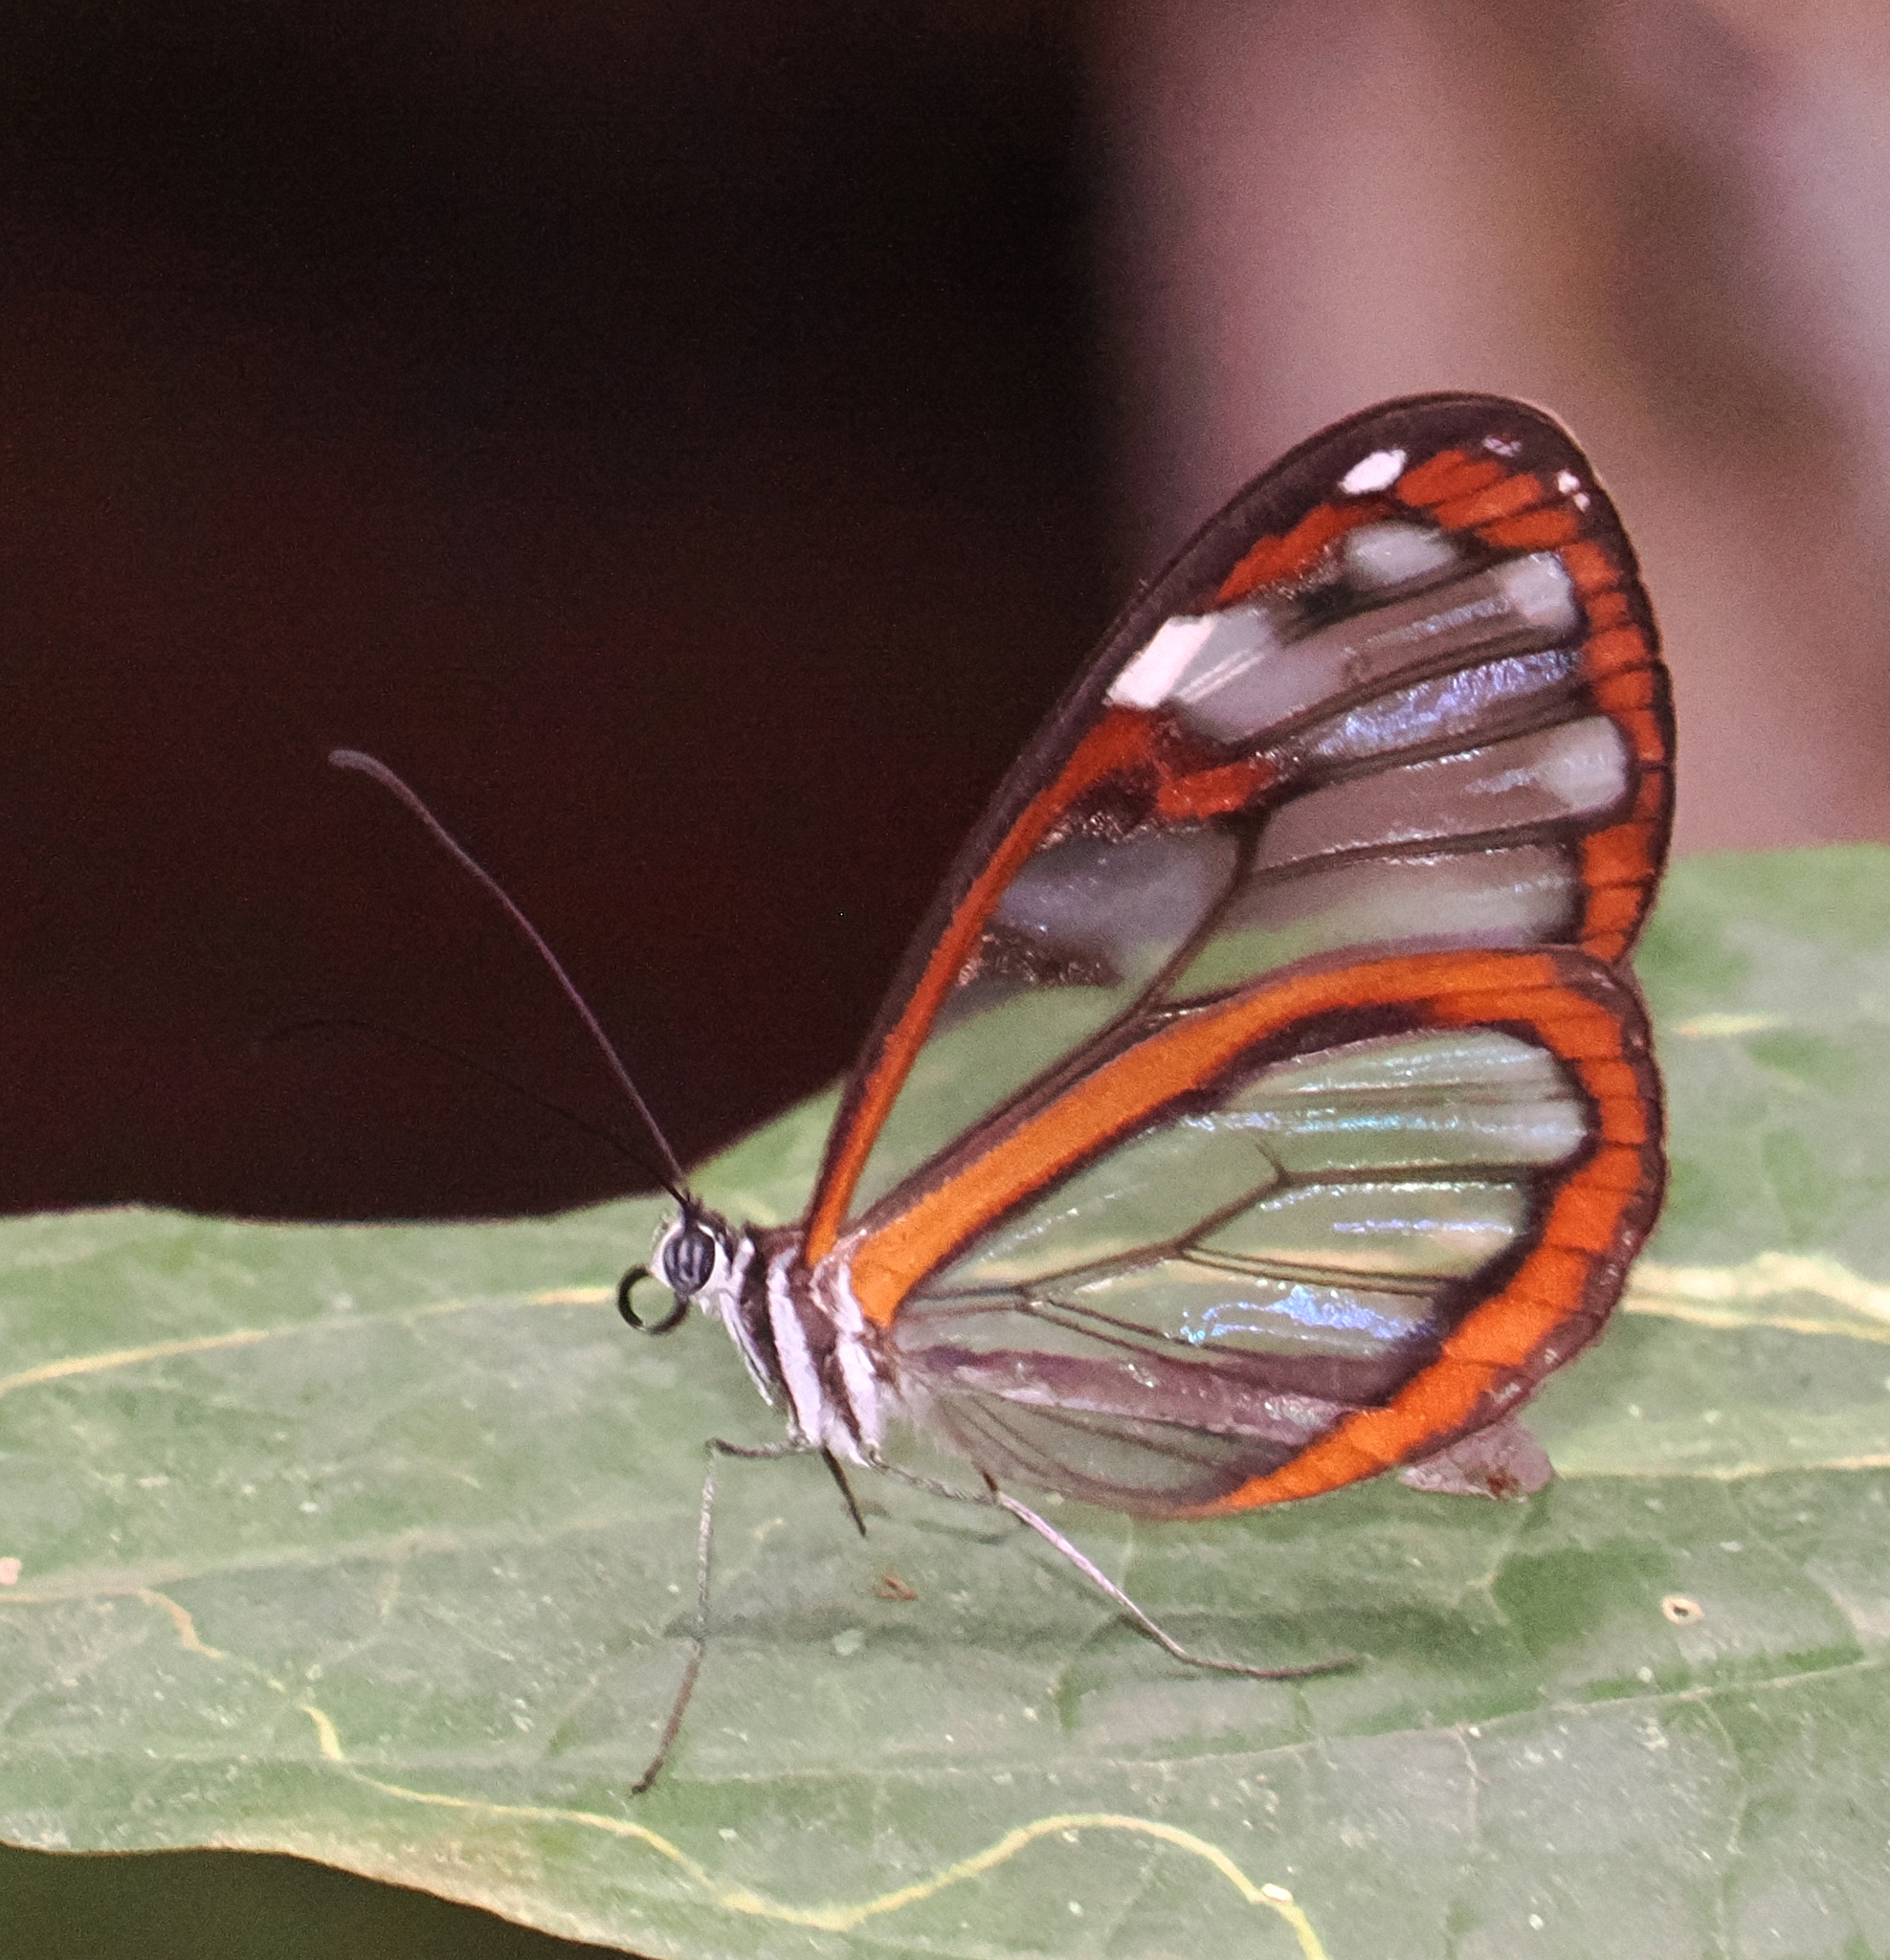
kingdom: Animalia
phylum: Arthropoda
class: Insecta
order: Lepidoptera
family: Nymphalidae
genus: Oleria
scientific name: Oleria makrena
